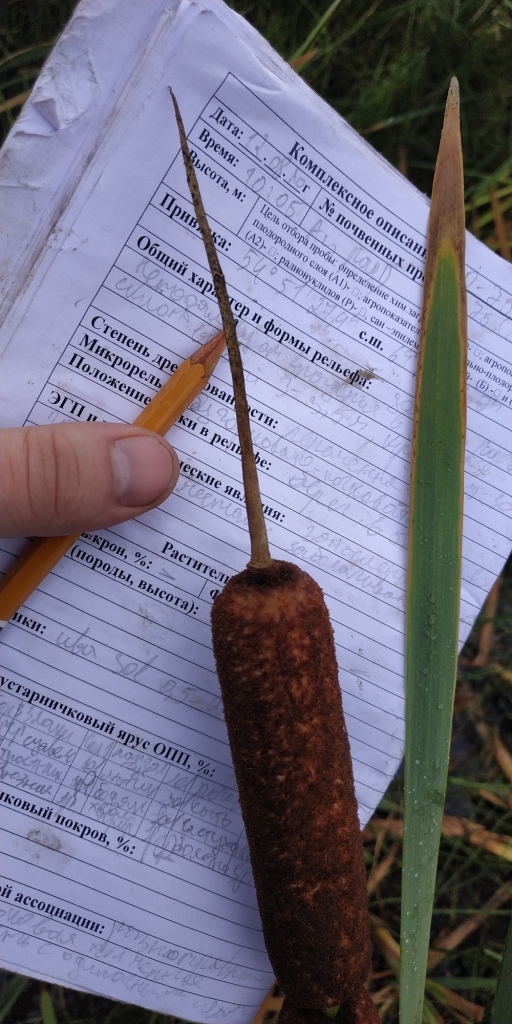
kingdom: Plantae
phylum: Tracheophyta
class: Liliopsida
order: Poales
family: Typhaceae
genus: Typha
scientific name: Typha latifolia
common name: Broadleaf cattail
